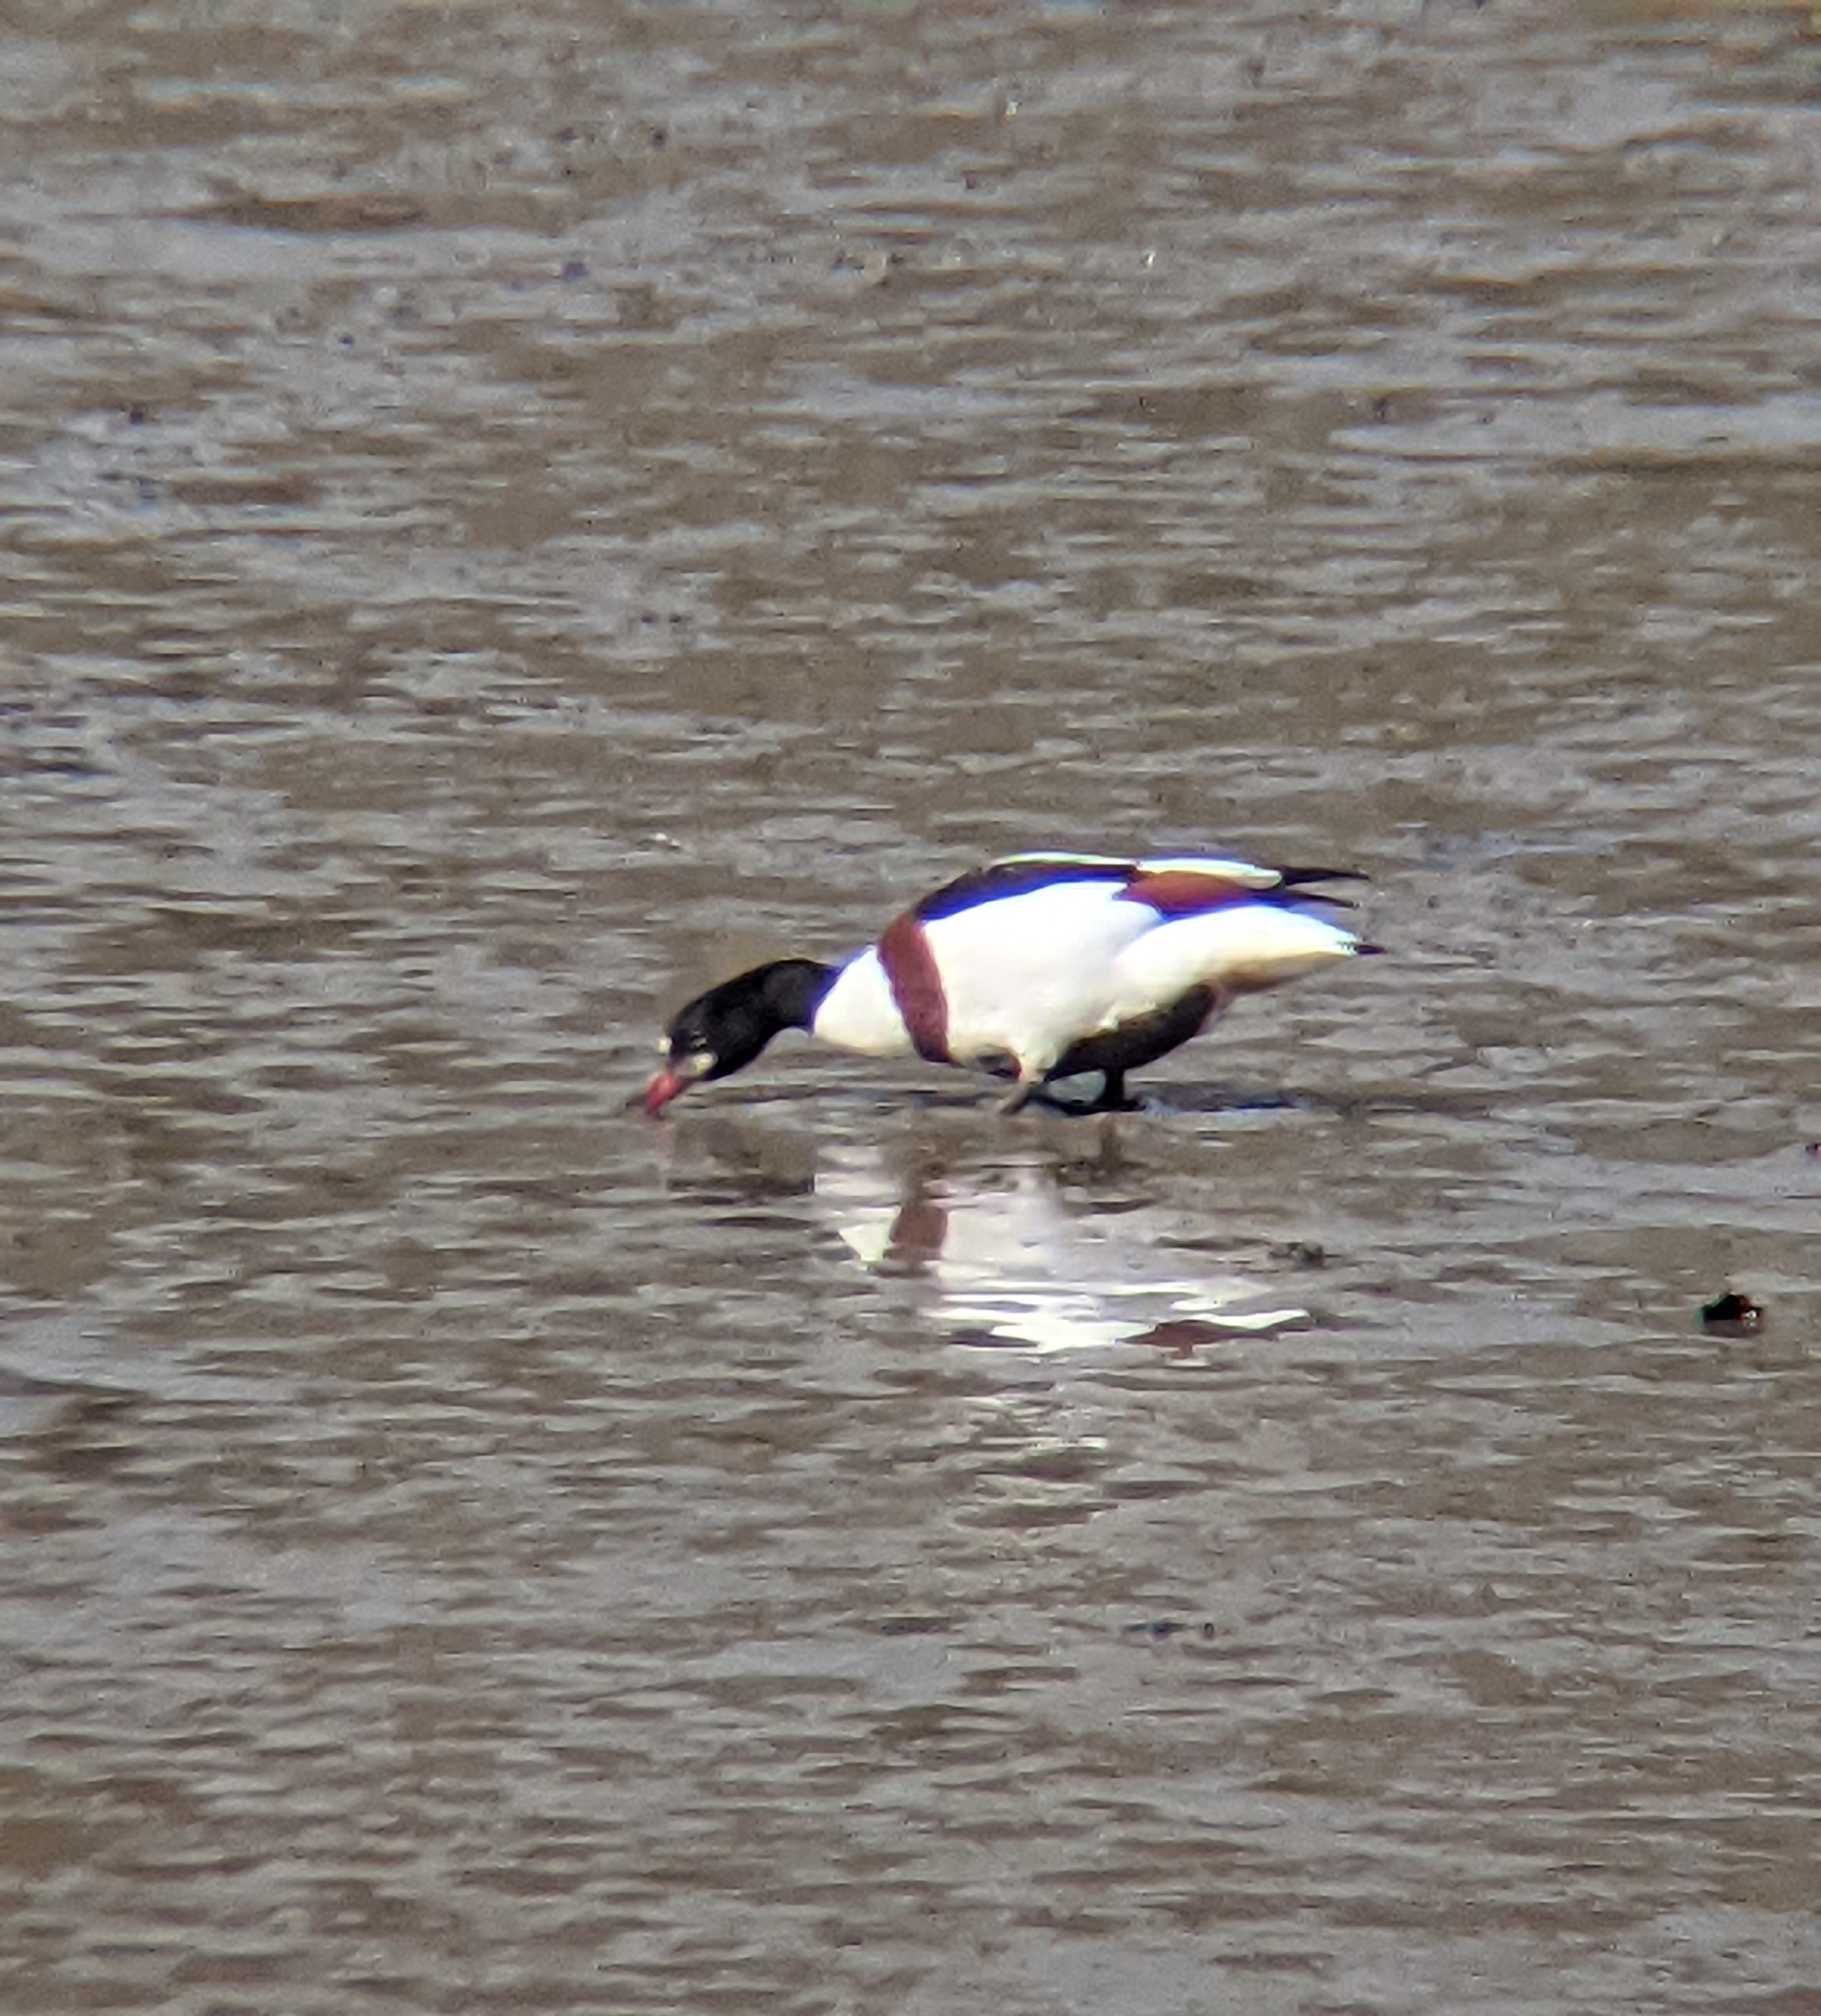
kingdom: Animalia
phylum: Chordata
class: Aves
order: Anseriformes
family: Anatidae
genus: Tadorna
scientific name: Tadorna tadorna
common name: Common shelduck
